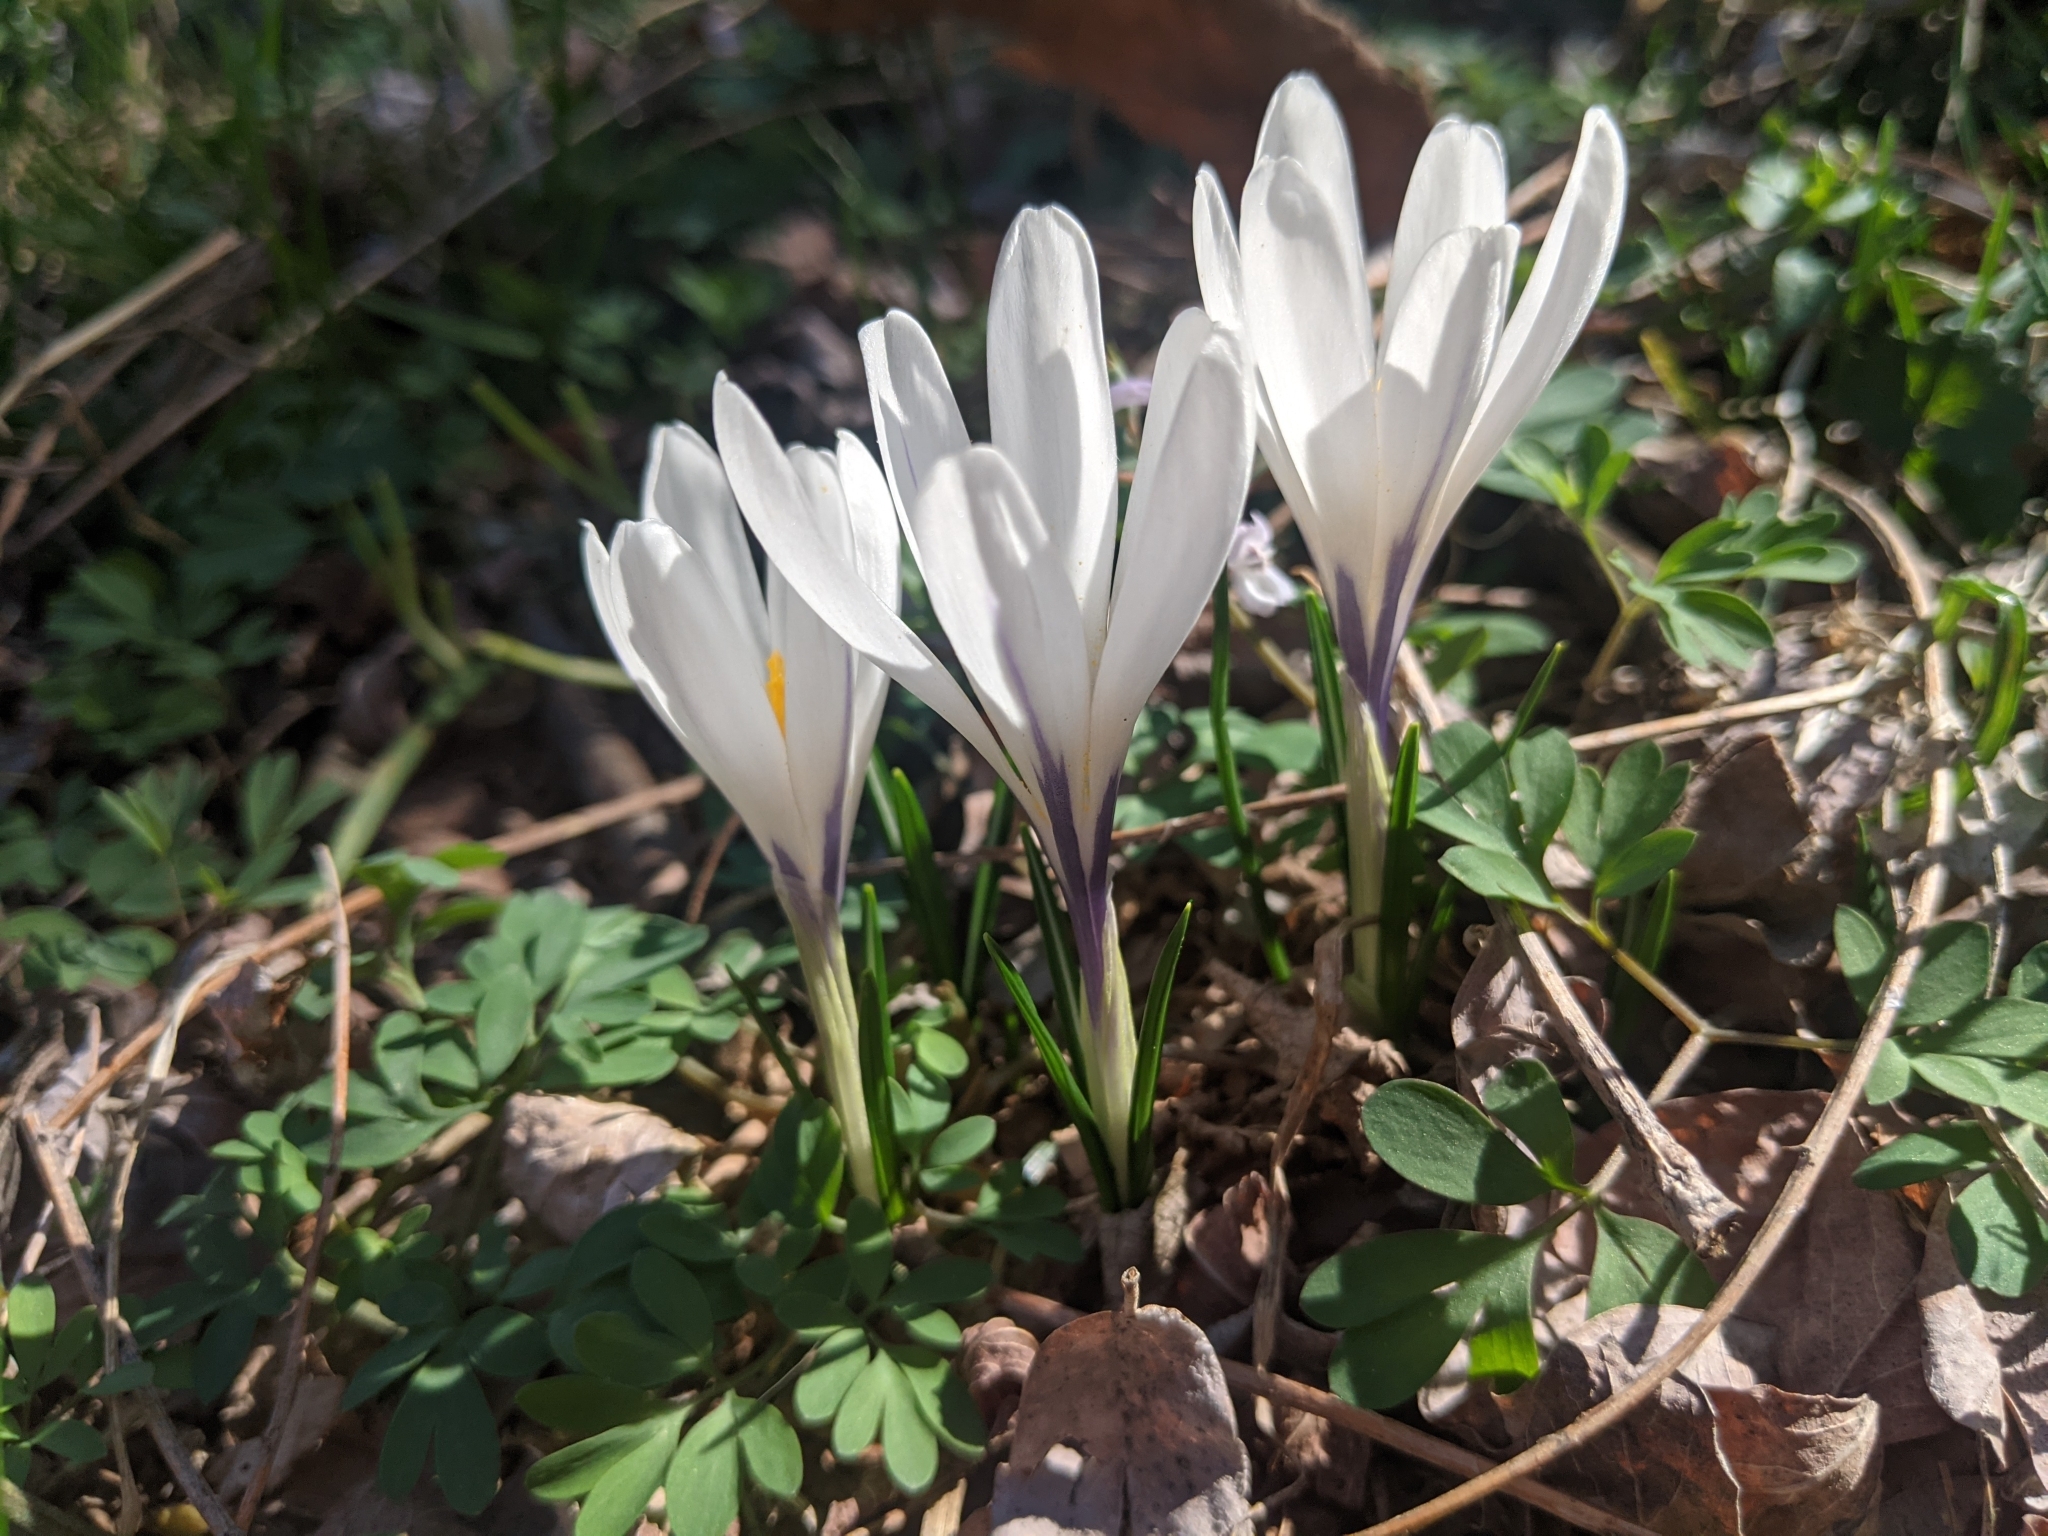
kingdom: Plantae
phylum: Tracheophyta
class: Liliopsida
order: Asparagales
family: Iridaceae
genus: Crocus
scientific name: Crocus vernus
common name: Spring crocus
